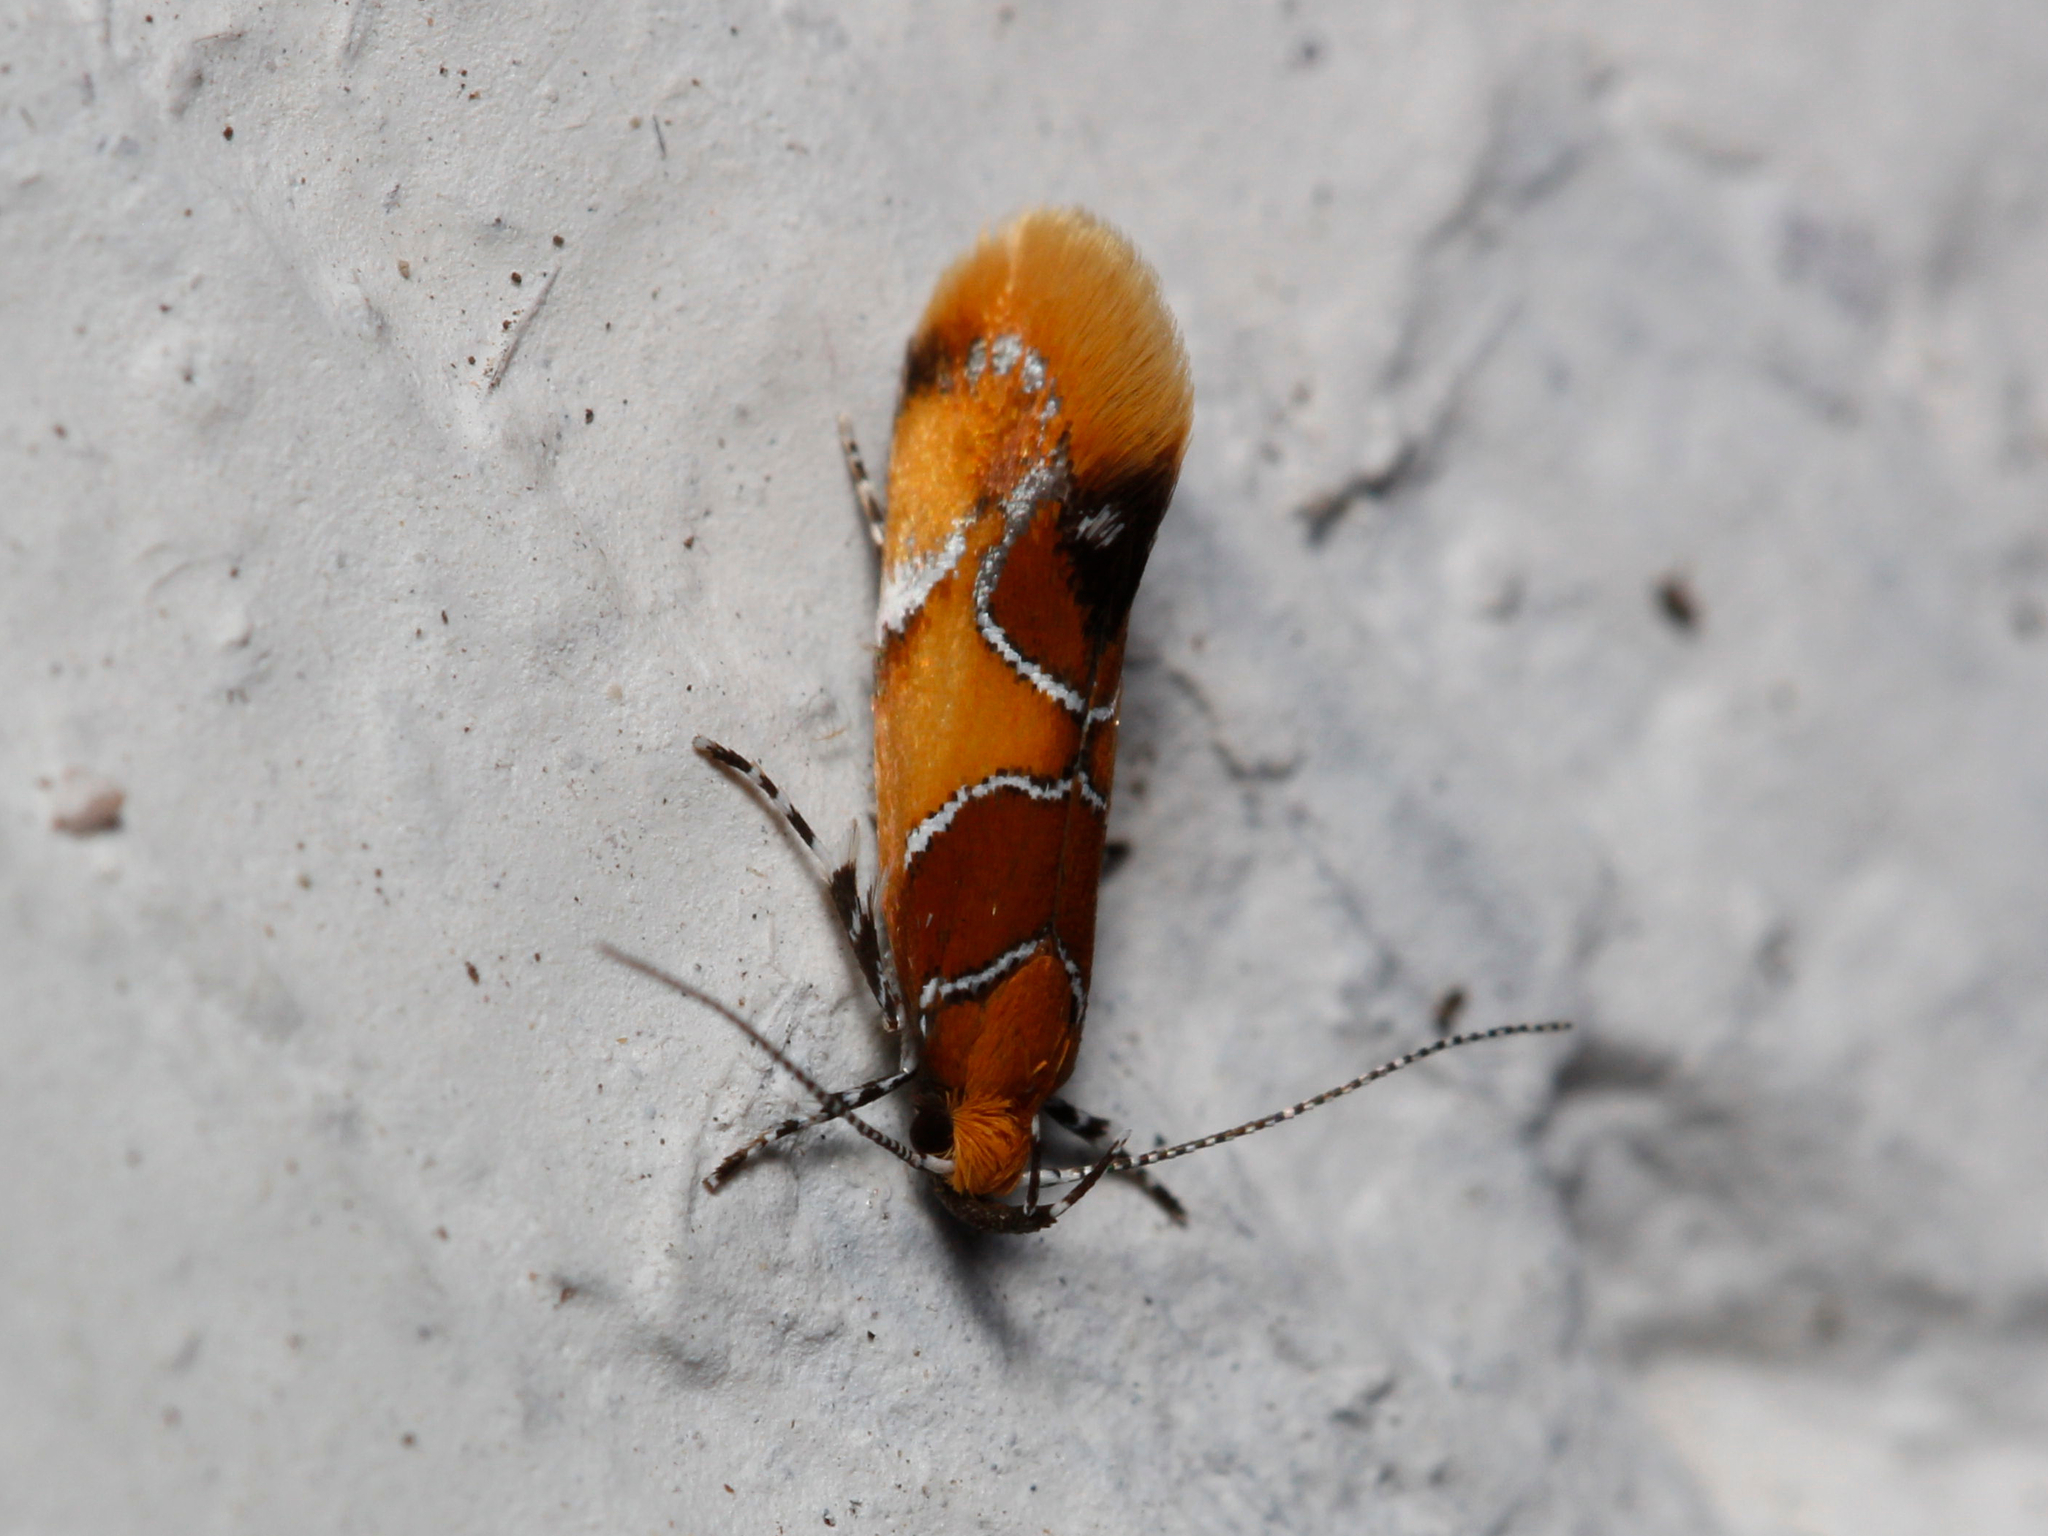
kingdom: Animalia
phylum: Arthropoda
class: Insecta
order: Lepidoptera
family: Oecophoridae
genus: Callima
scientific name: Callima argenticinctella
